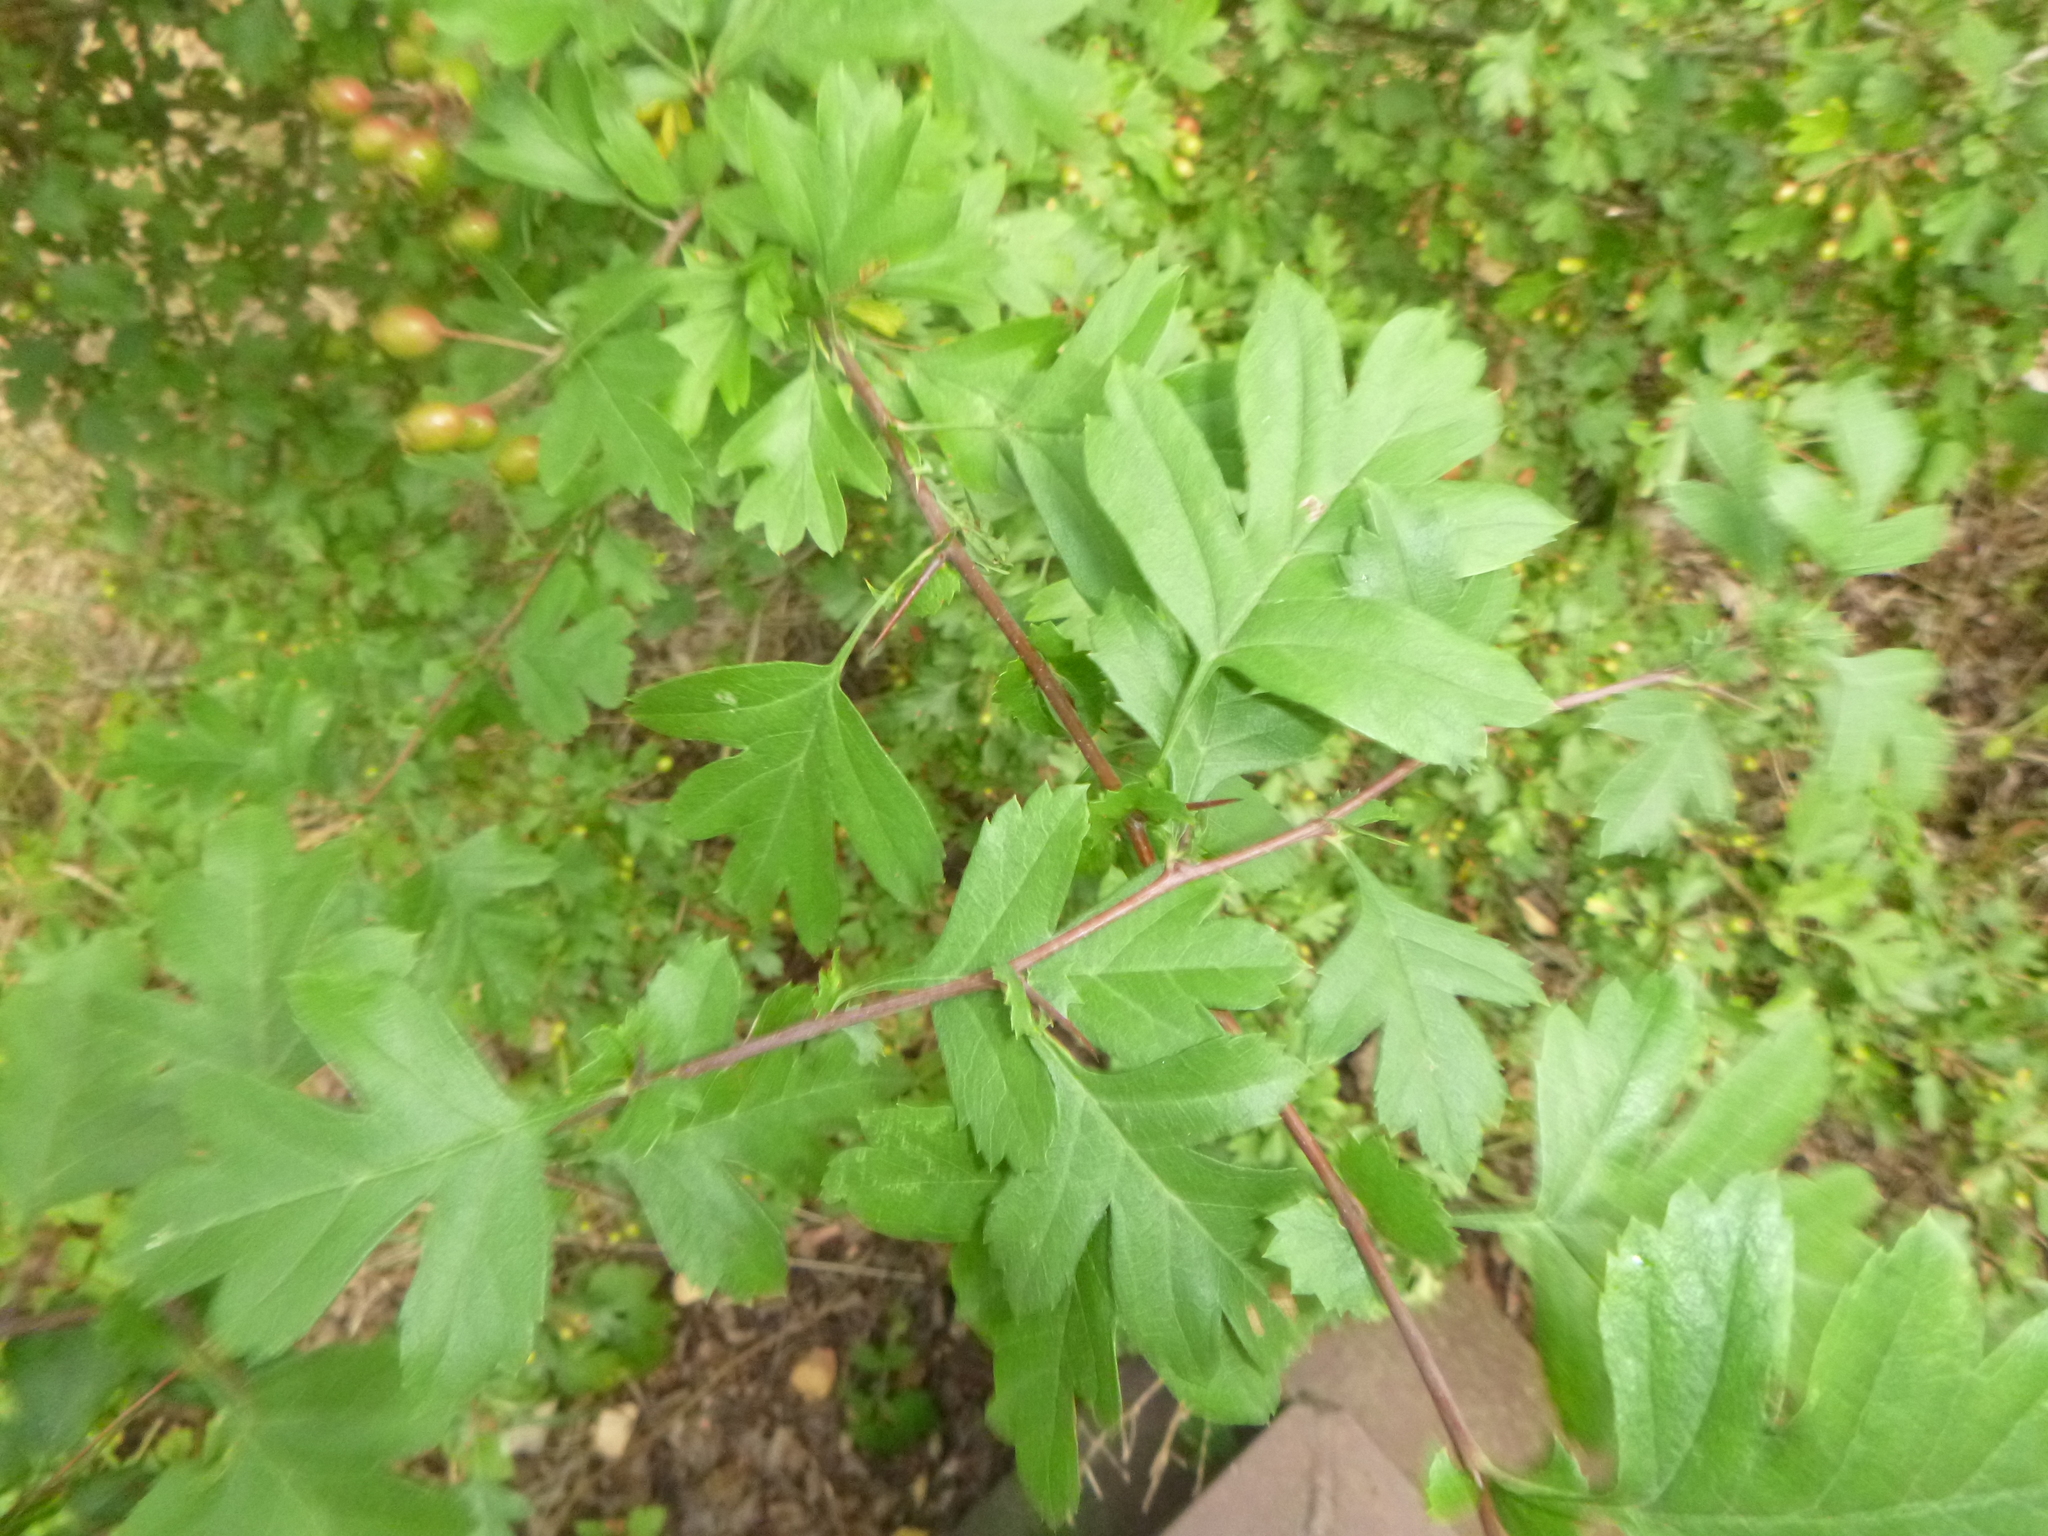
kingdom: Plantae
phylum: Tracheophyta
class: Magnoliopsida
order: Rosales
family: Rosaceae
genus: Crataegus
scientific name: Crataegus monogyna
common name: Hawthorn
